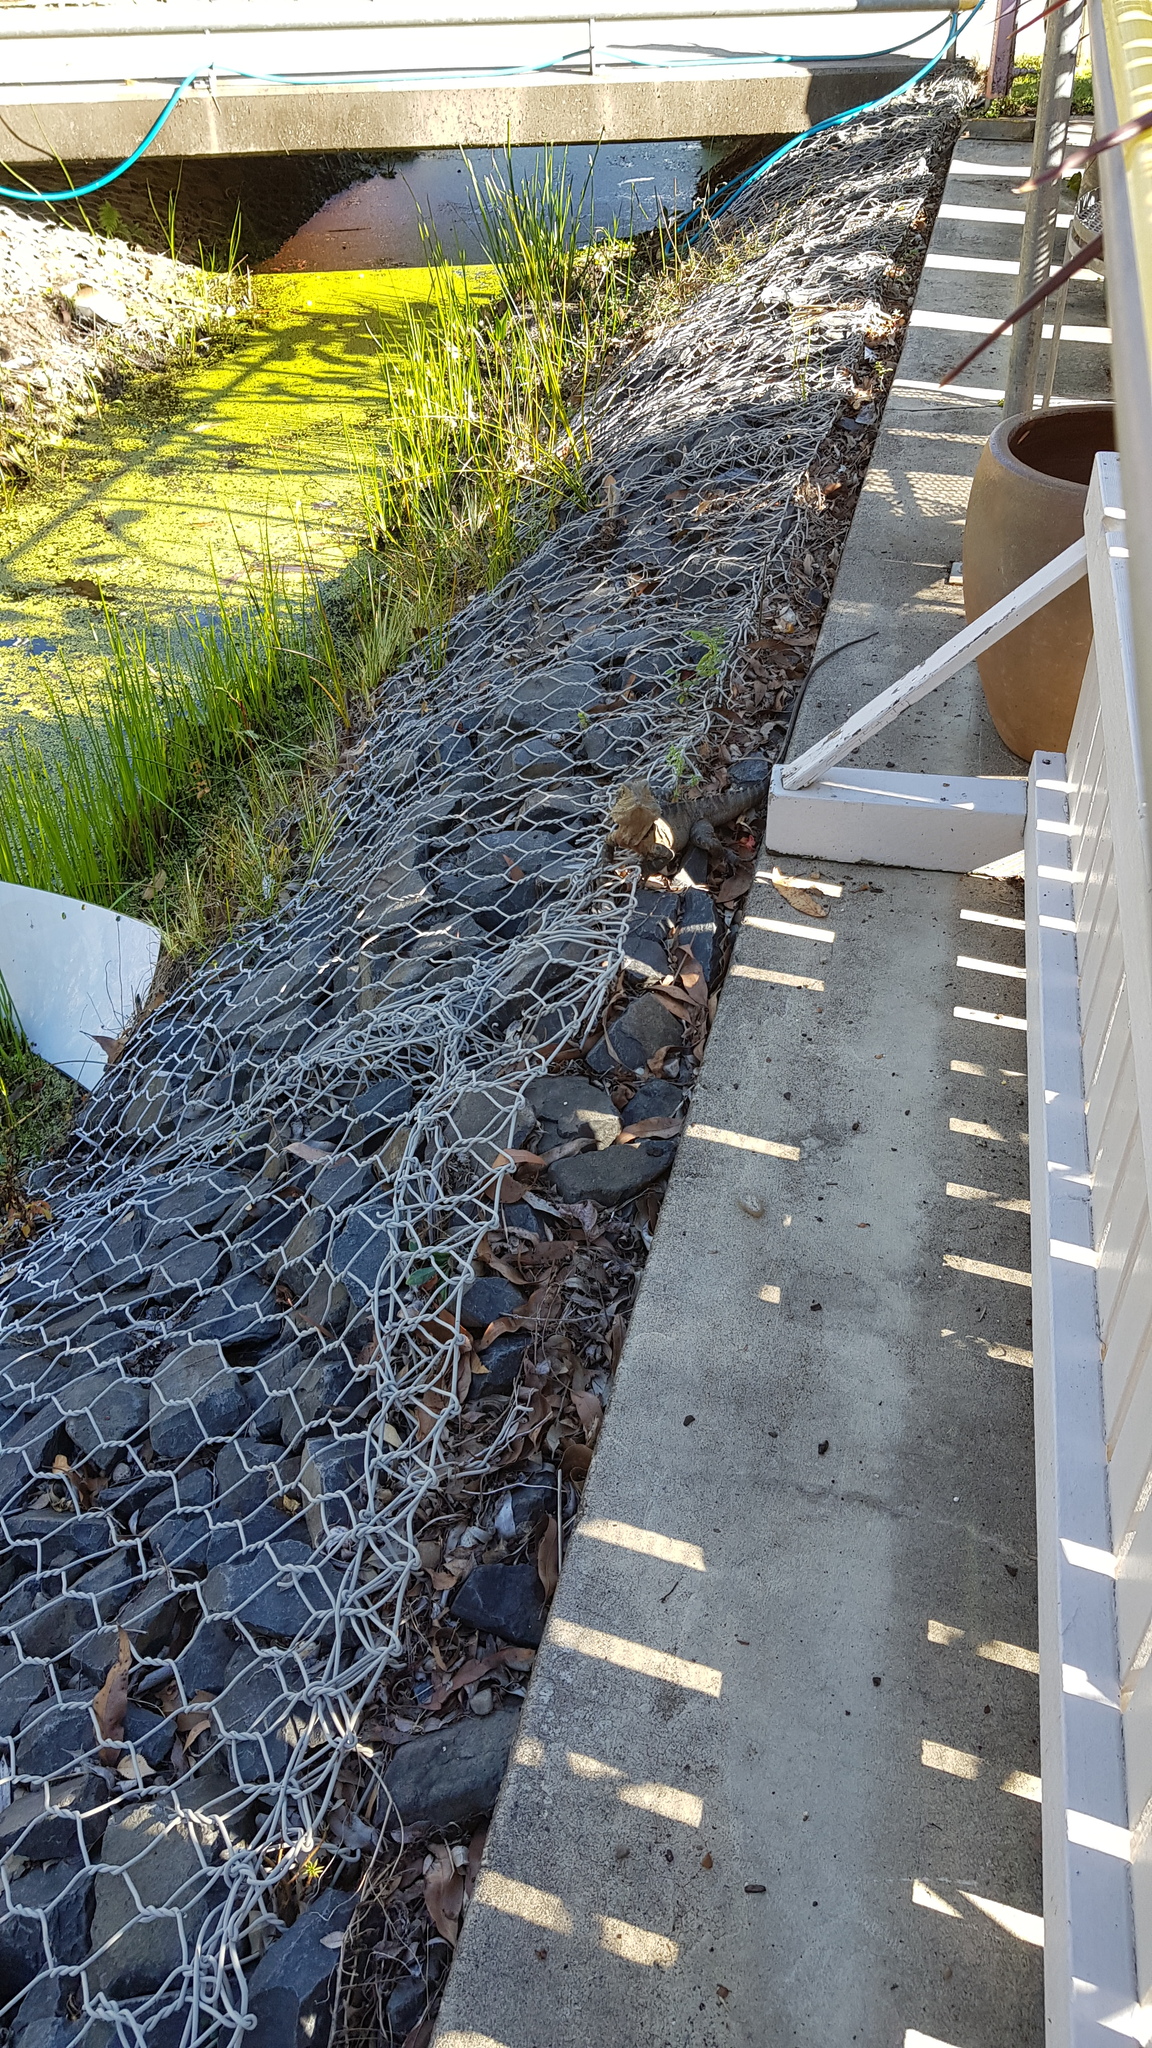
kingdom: Animalia
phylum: Chordata
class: Squamata
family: Agamidae
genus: Intellagama
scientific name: Intellagama lesueurii
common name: Eastern water dragon
